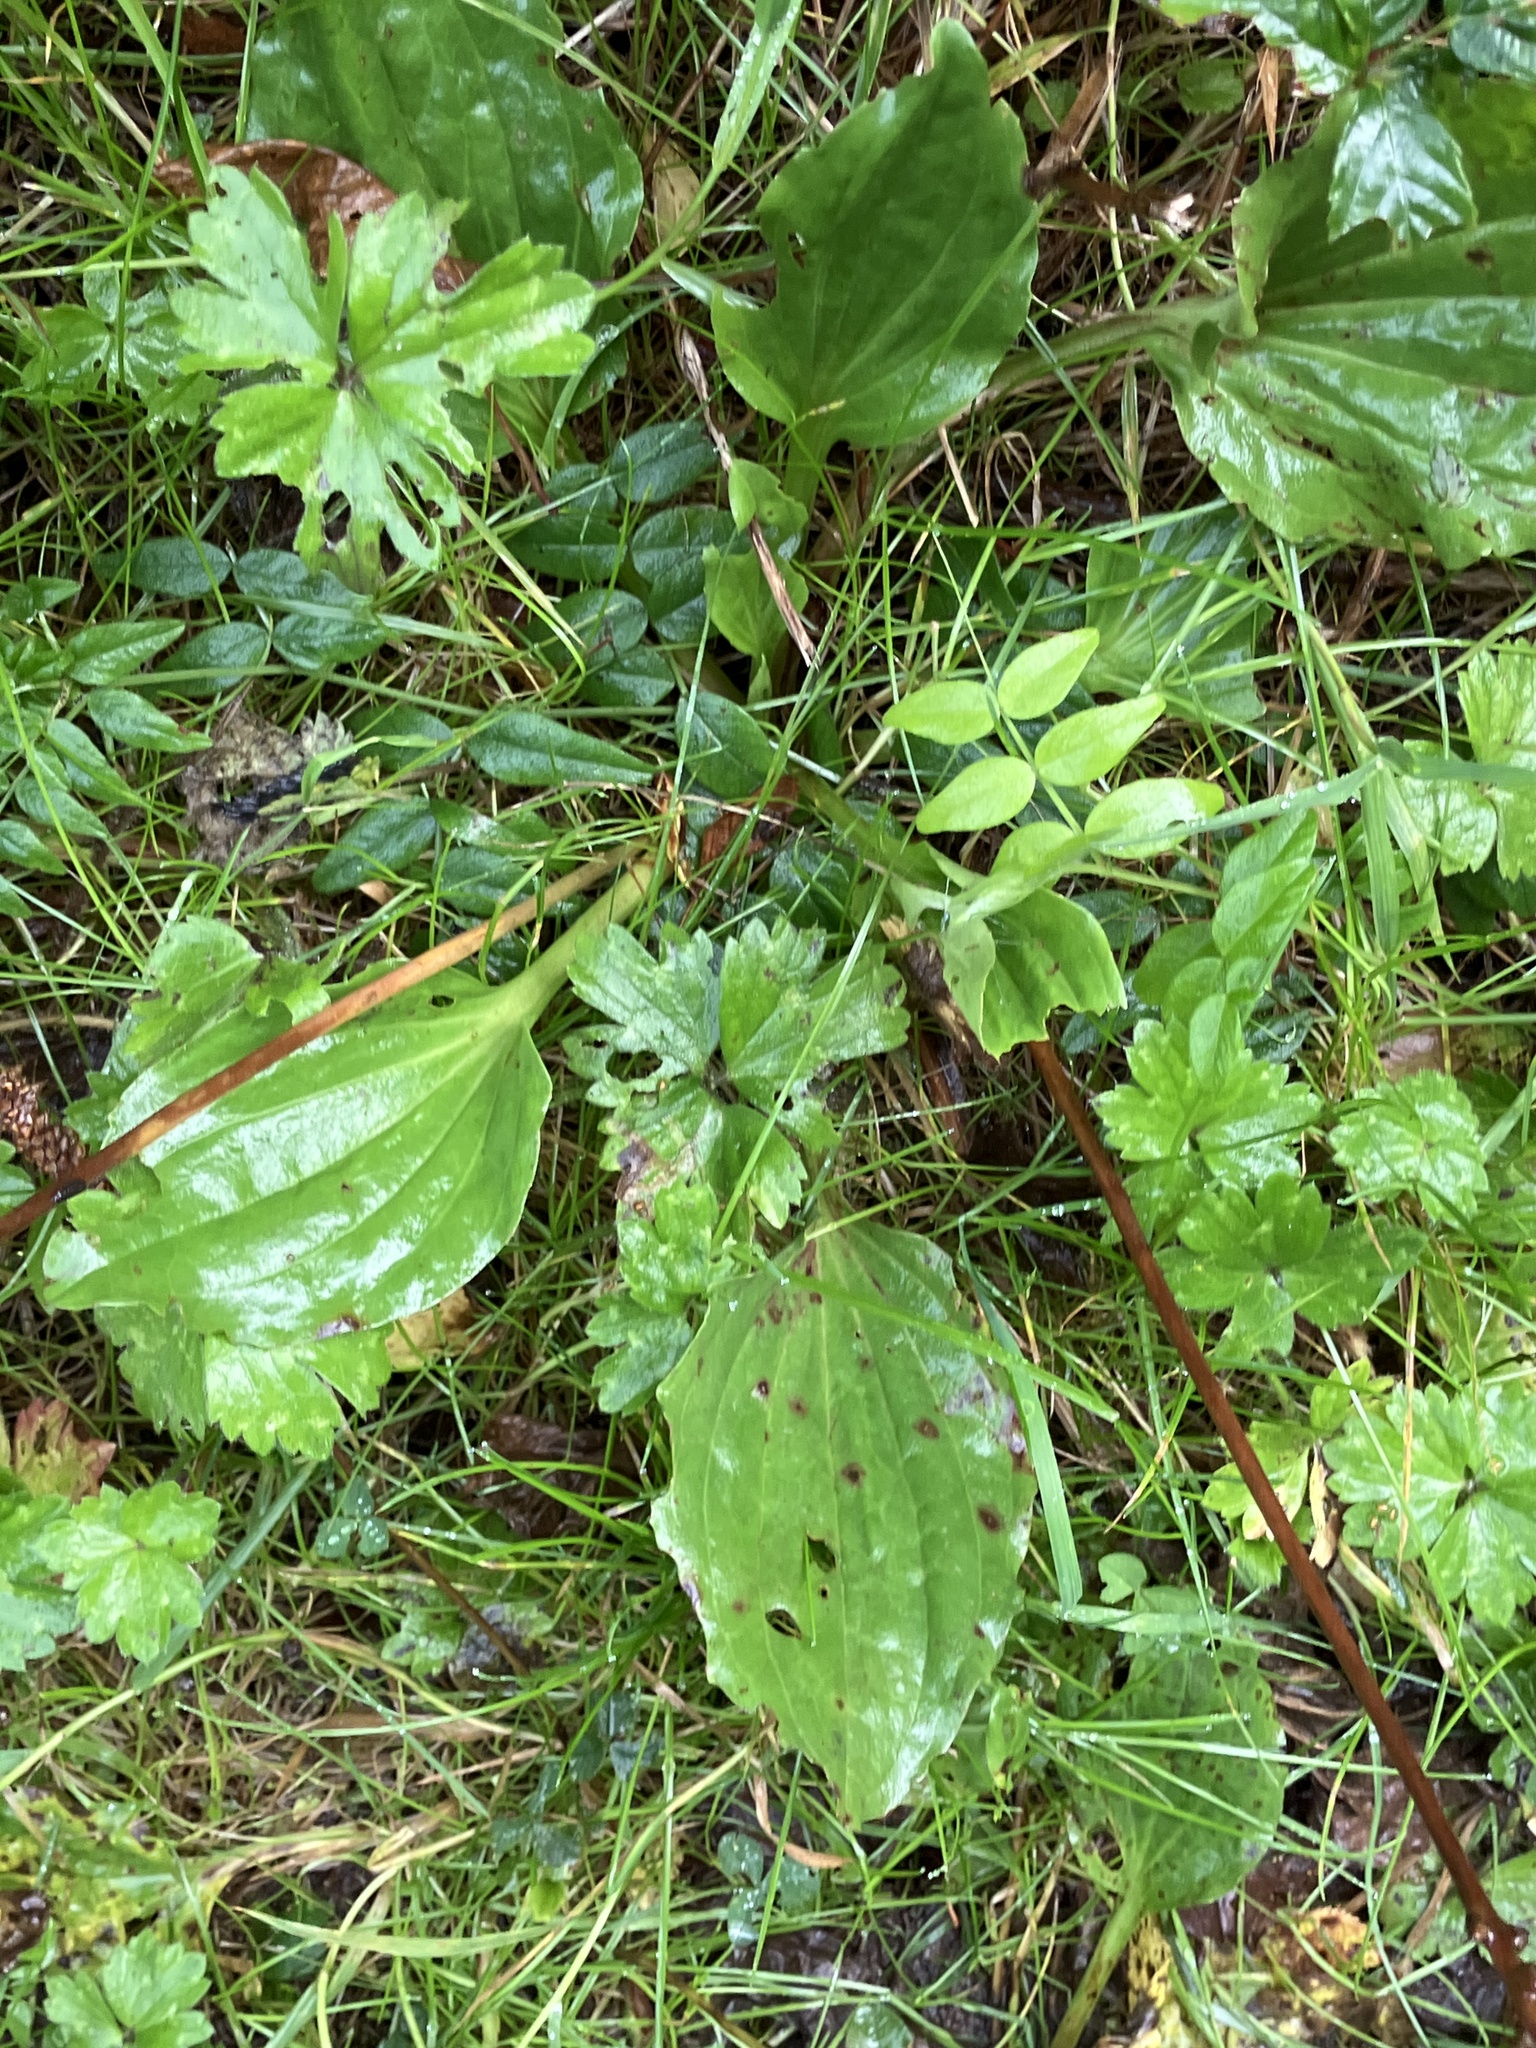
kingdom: Plantae
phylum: Tracheophyta
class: Magnoliopsida
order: Lamiales
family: Plantaginaceae
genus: Plantago
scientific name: Plantago major
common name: Common plantain
